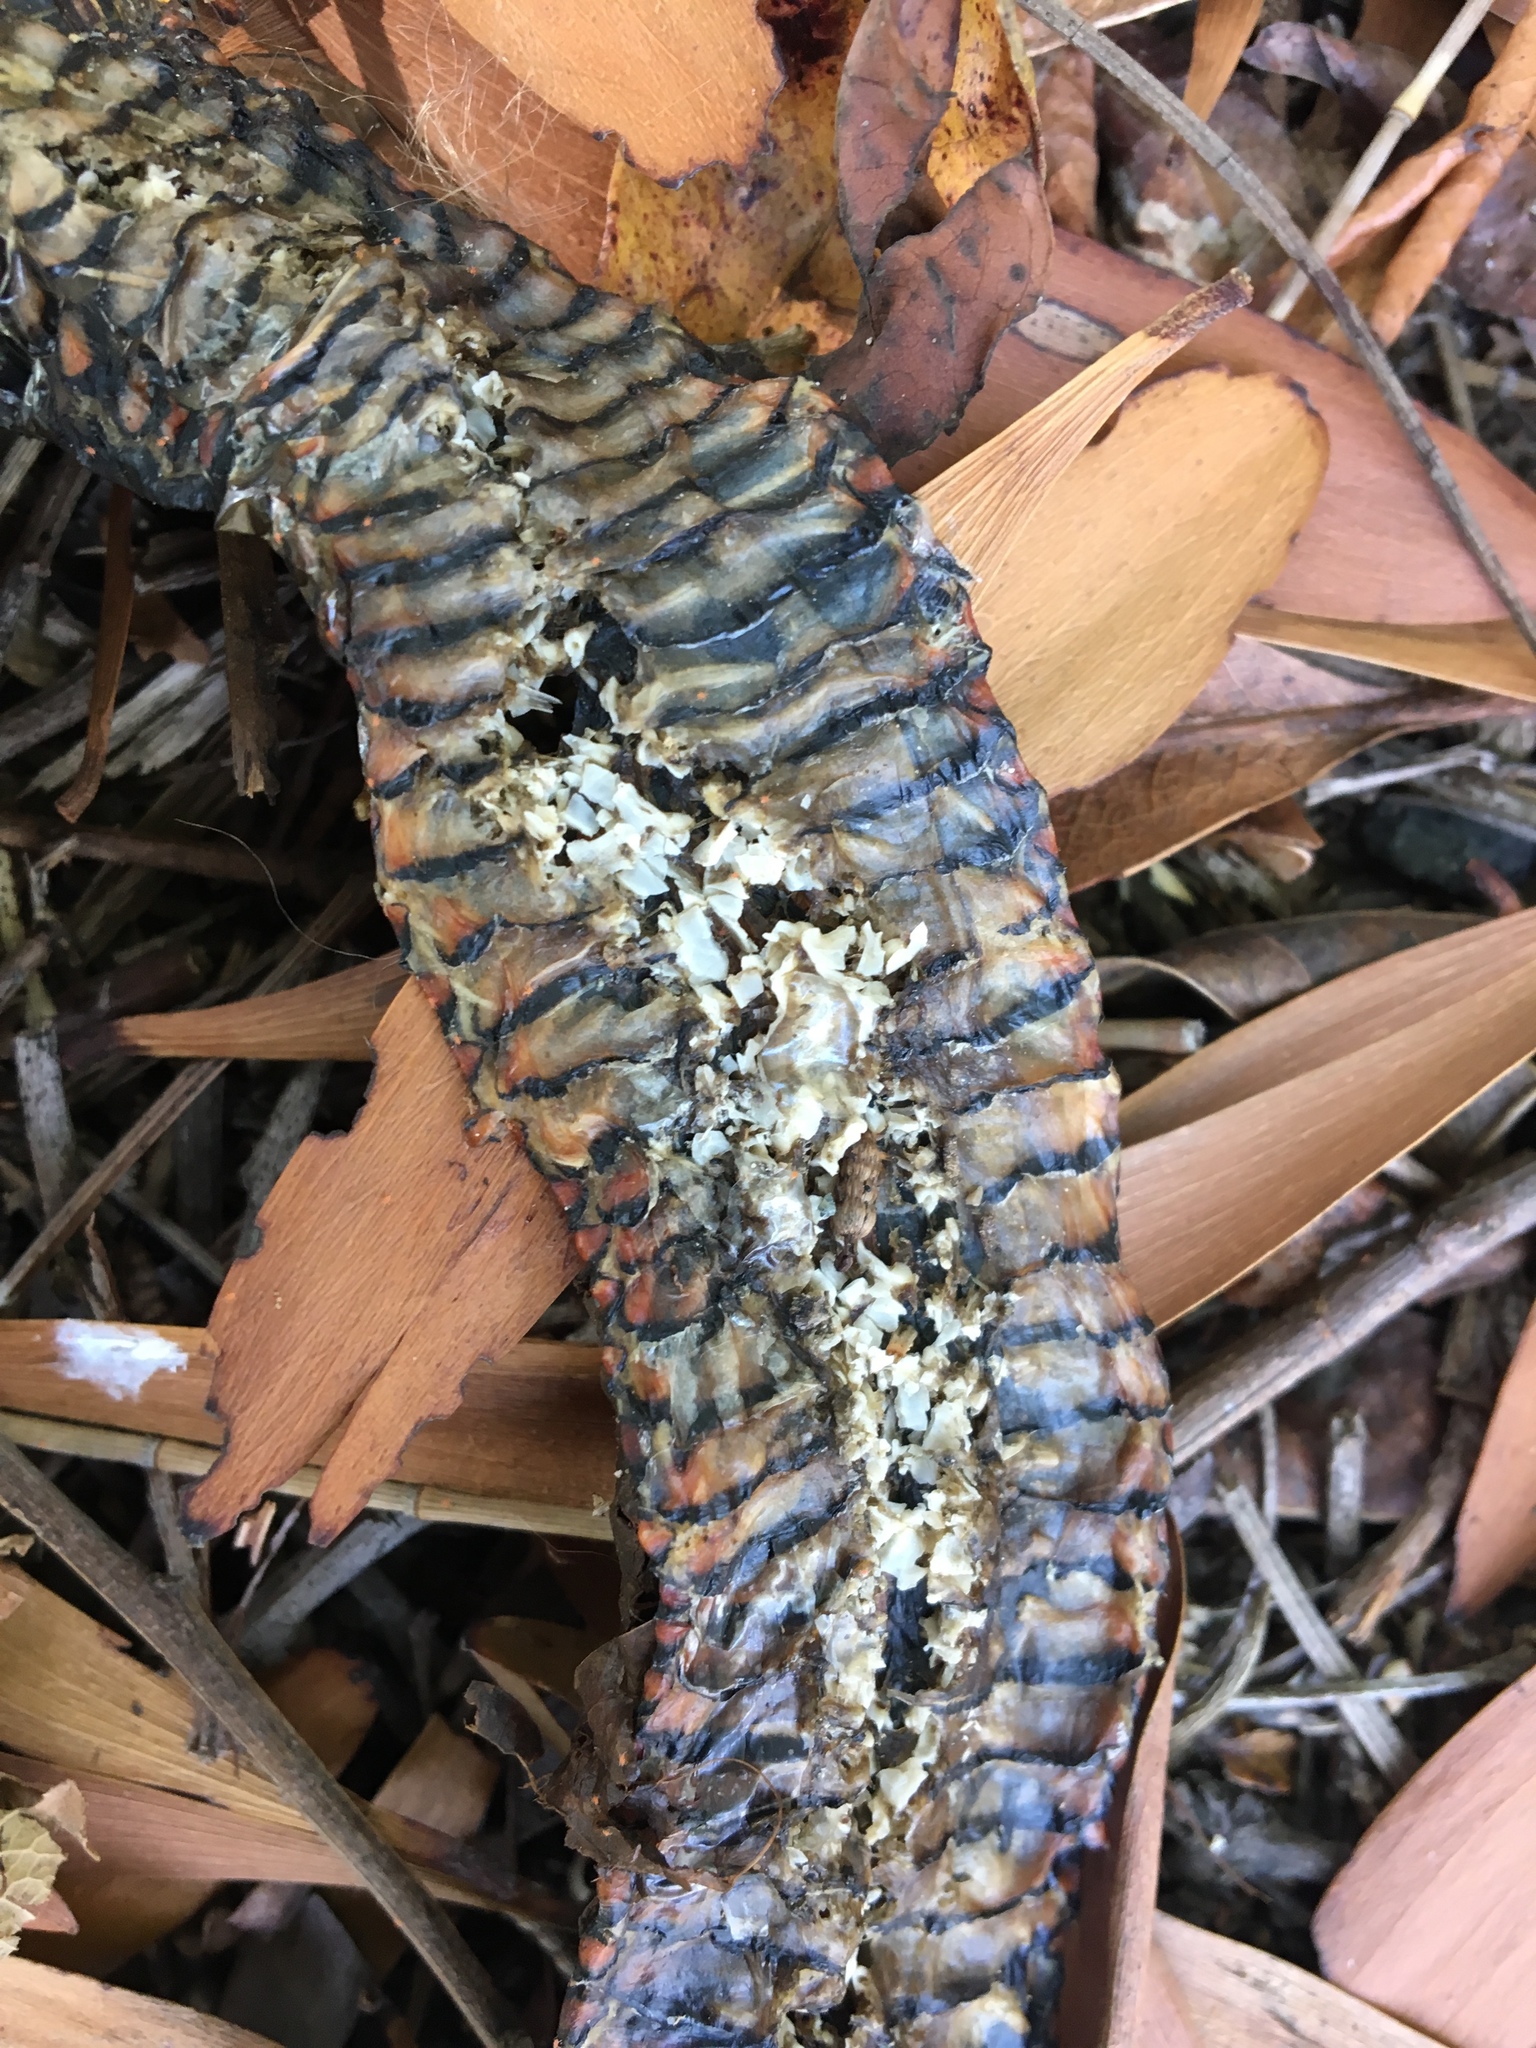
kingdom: Animalia
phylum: Chordata
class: Squamata
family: Elapidae
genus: Pseudechis
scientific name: Pseudechis porphyriacus
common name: Australian black snake
